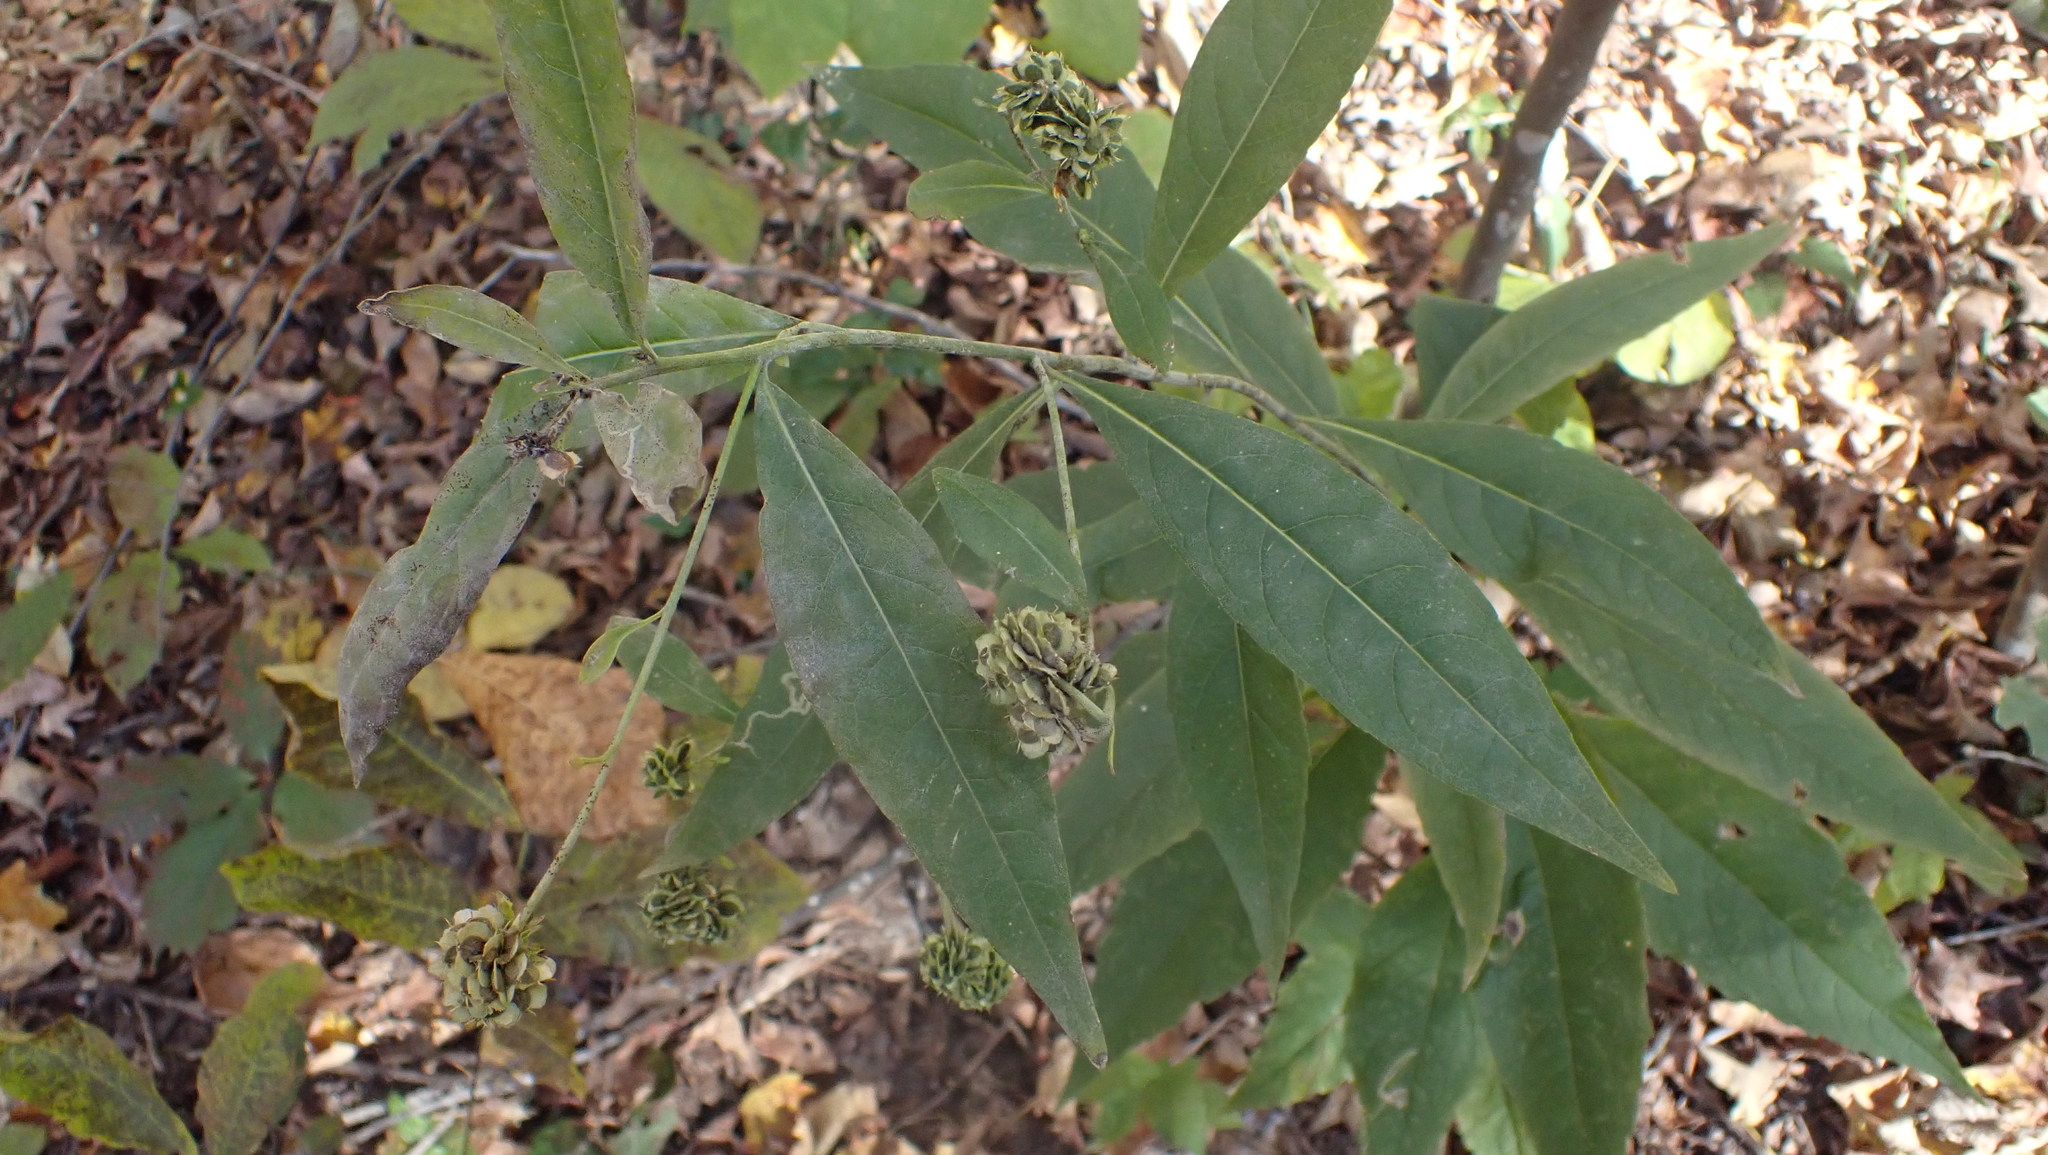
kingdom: Plantae
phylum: Tracheophyta
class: Magnoliopsida
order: Asterales
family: Asteraceae
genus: Verbesina
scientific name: Verbesina alternifolia
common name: Wingstem
